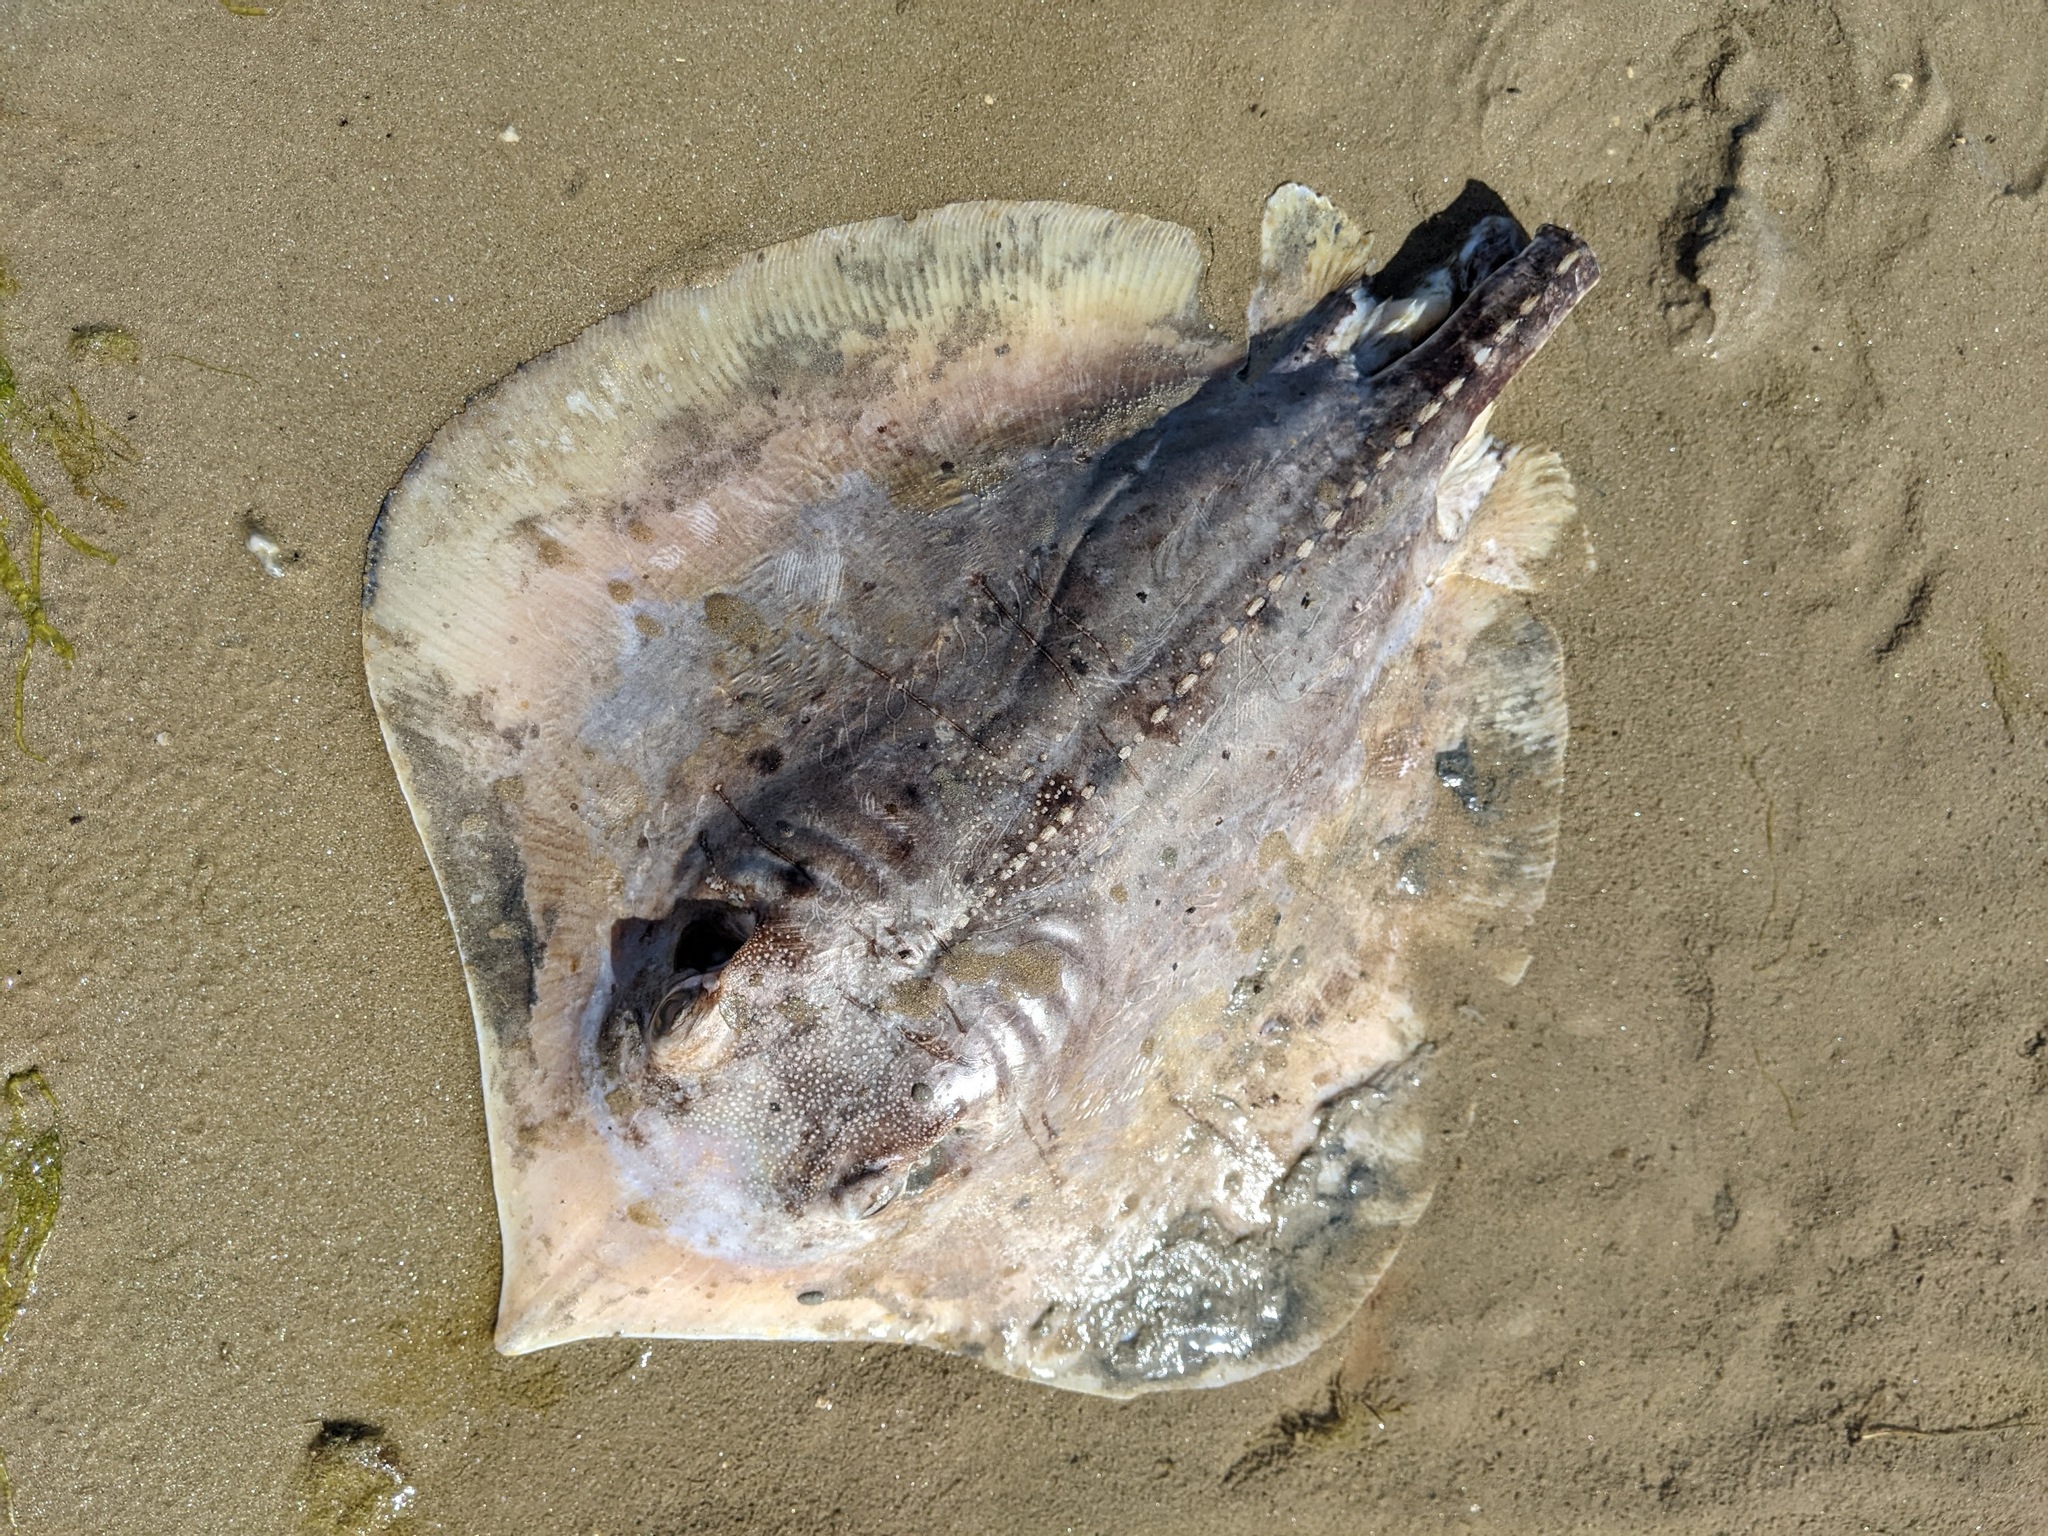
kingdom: Animalia
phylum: Chordata
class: Elasmobranchii
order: Myliobatiformes
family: Dasyatidae
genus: Hypanus
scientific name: Hypanus sabinus
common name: Atlantic stingray
